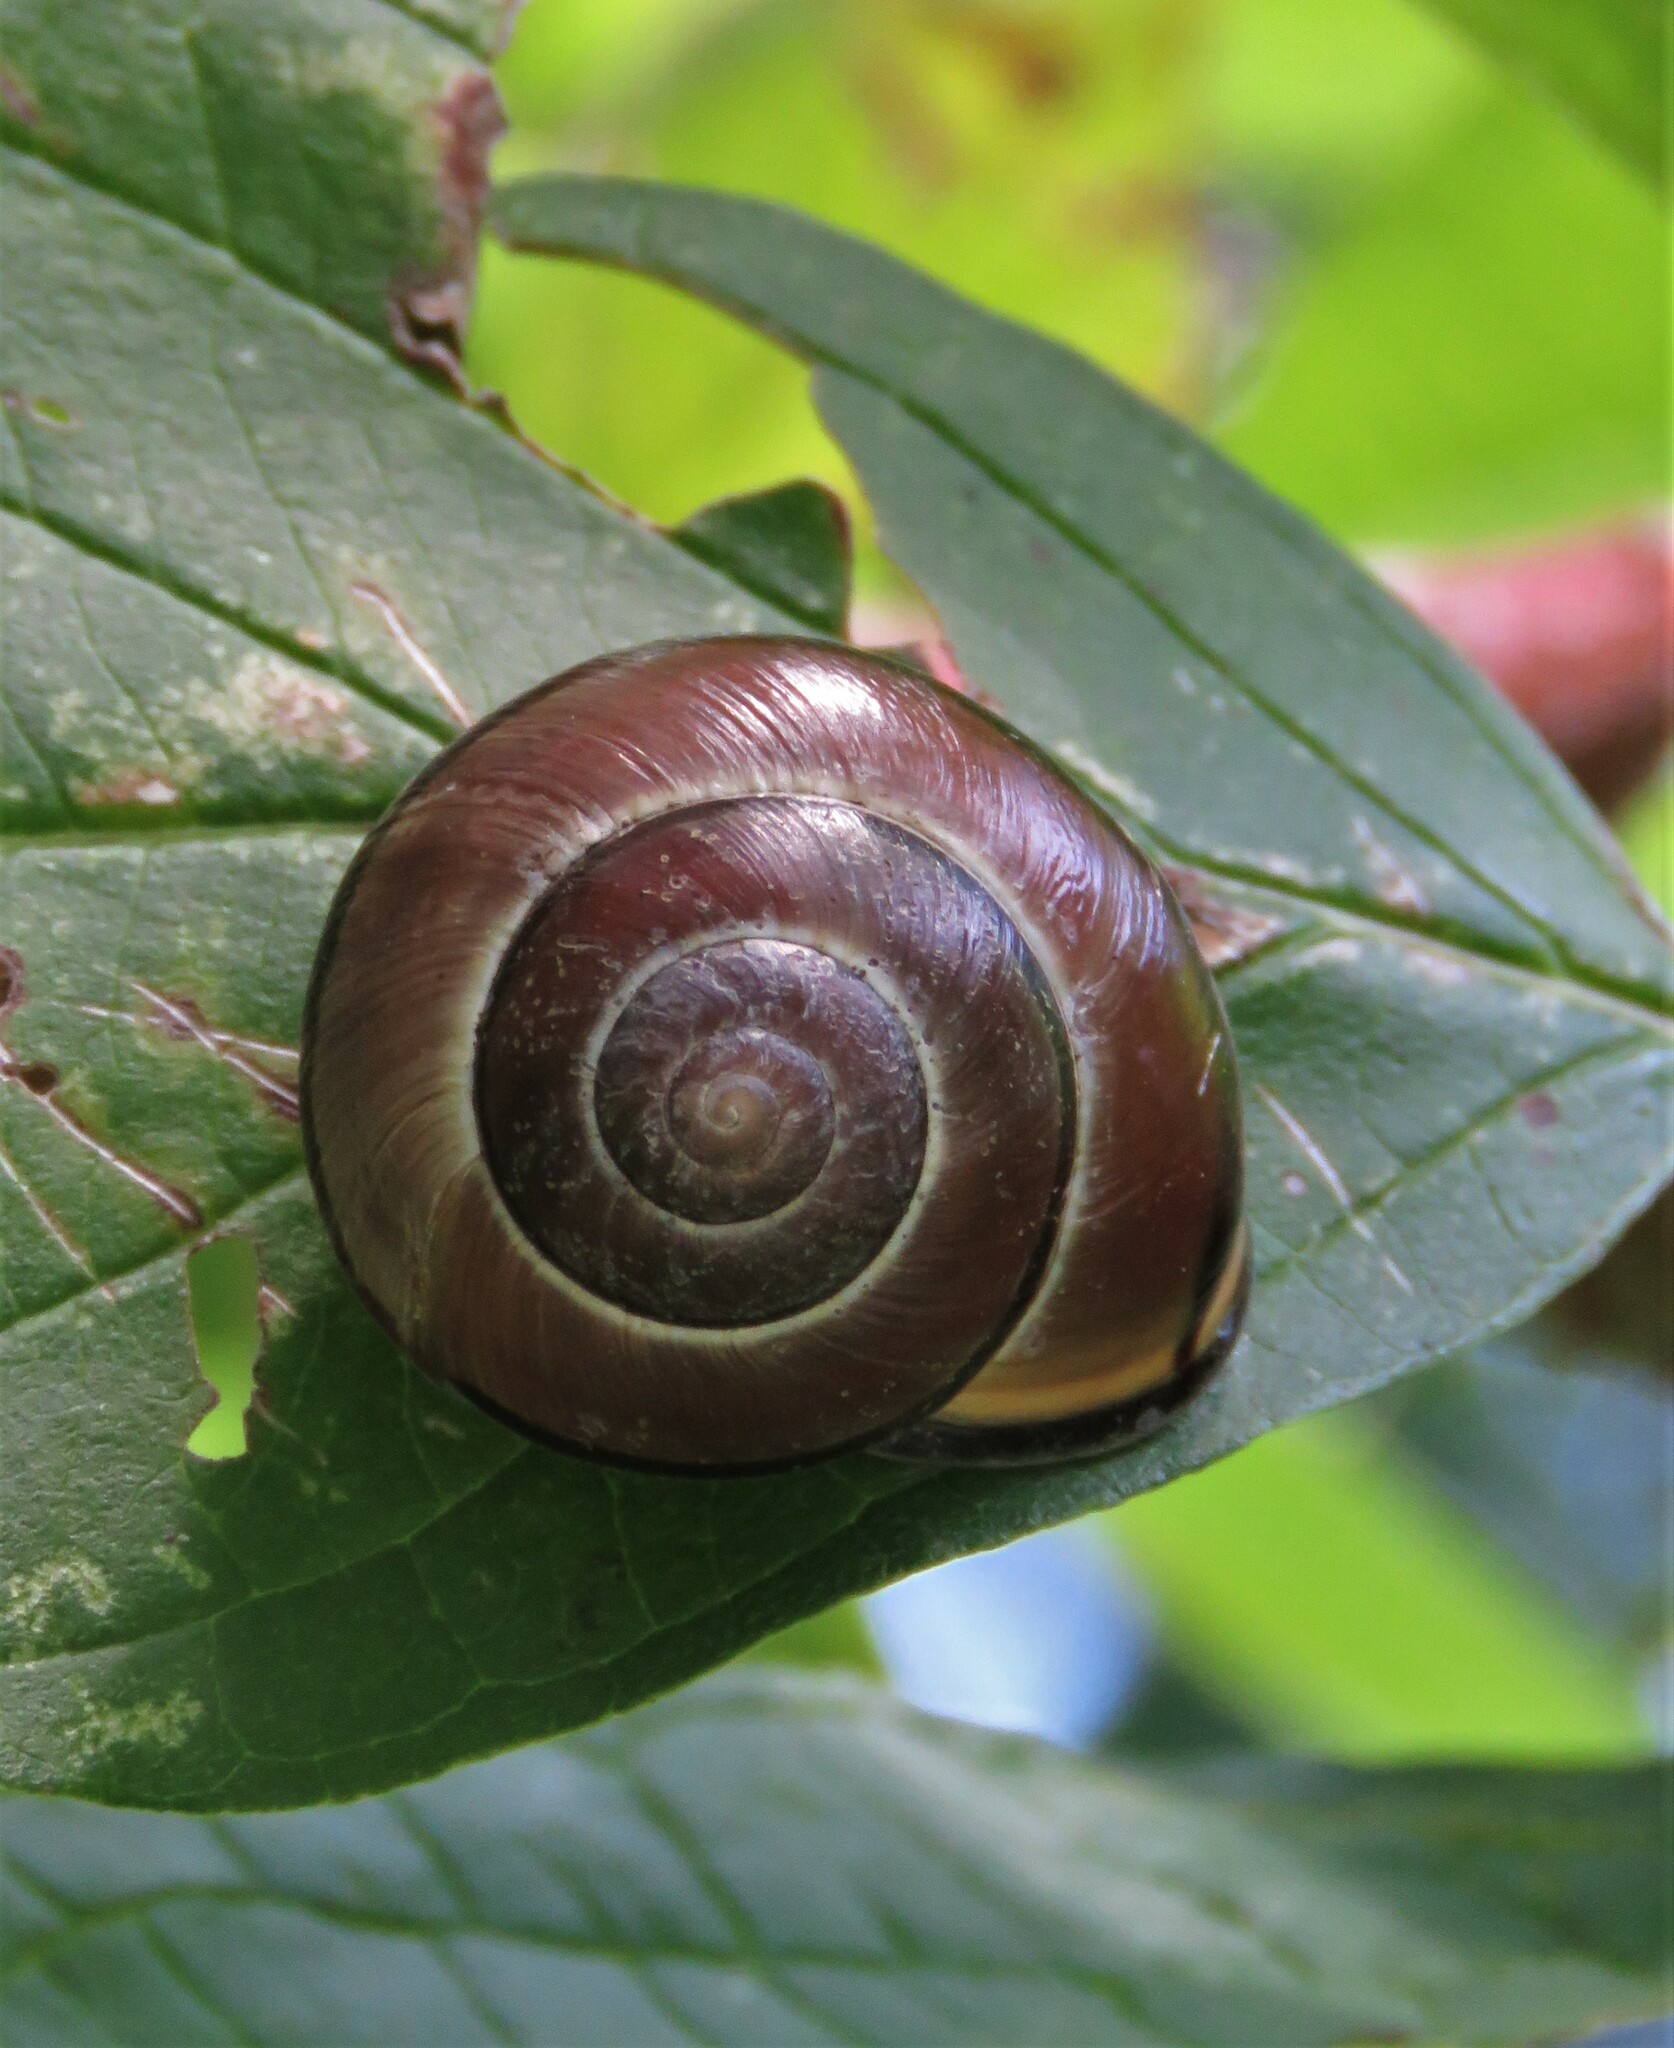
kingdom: Animalia
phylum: Mollusca
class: Gastropoda
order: Stylommatophora
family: Helicidae
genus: Cepaea
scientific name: Cepaea nemoralis
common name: Grovesnail
